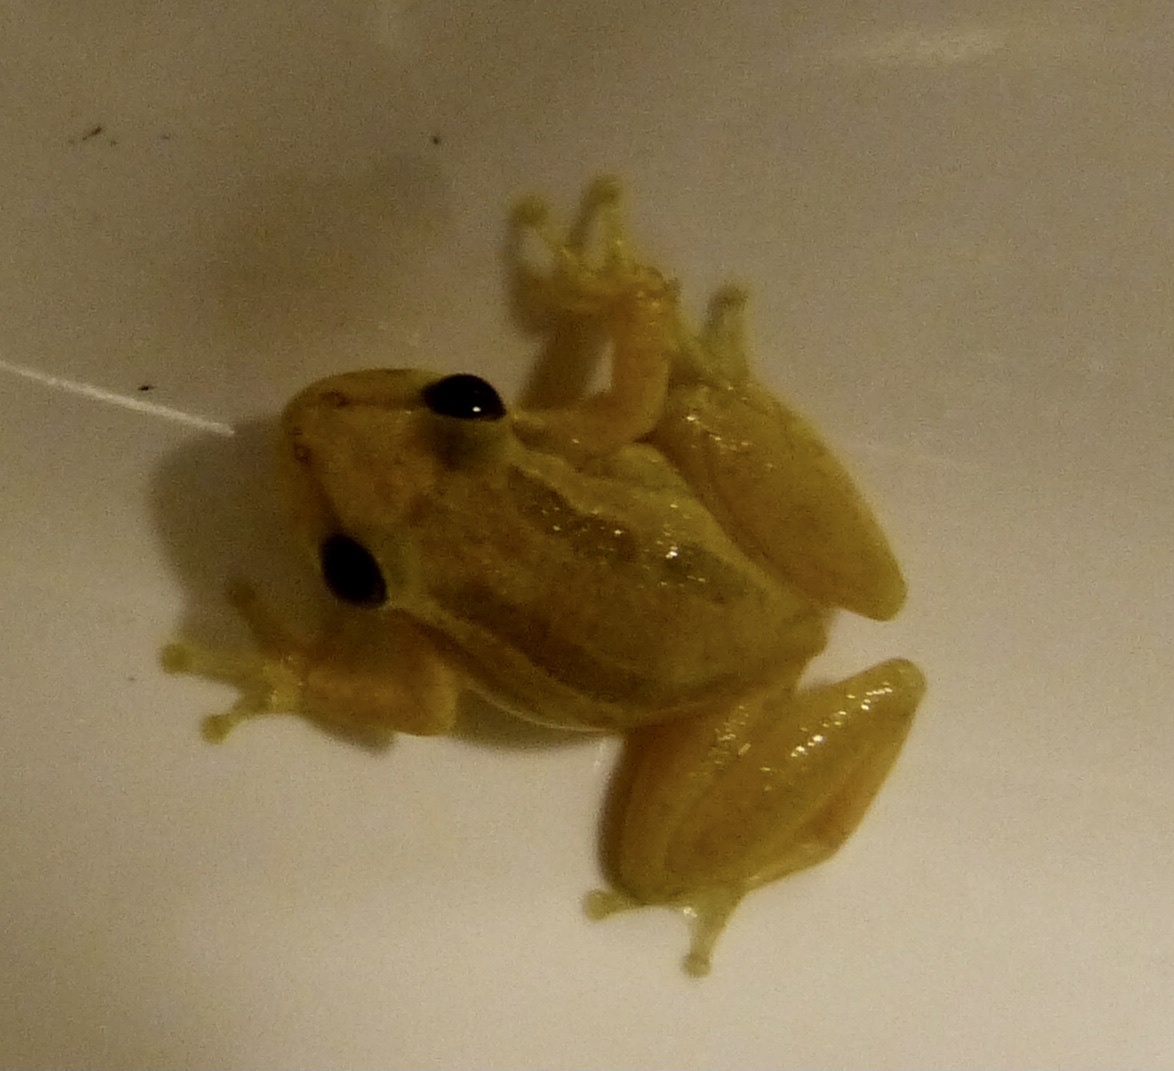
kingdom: Animalia
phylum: Chordata
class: Amphibia
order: Anura
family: Hylidae
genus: Scinax
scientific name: Scinax ruber
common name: Red snouted treefrog
